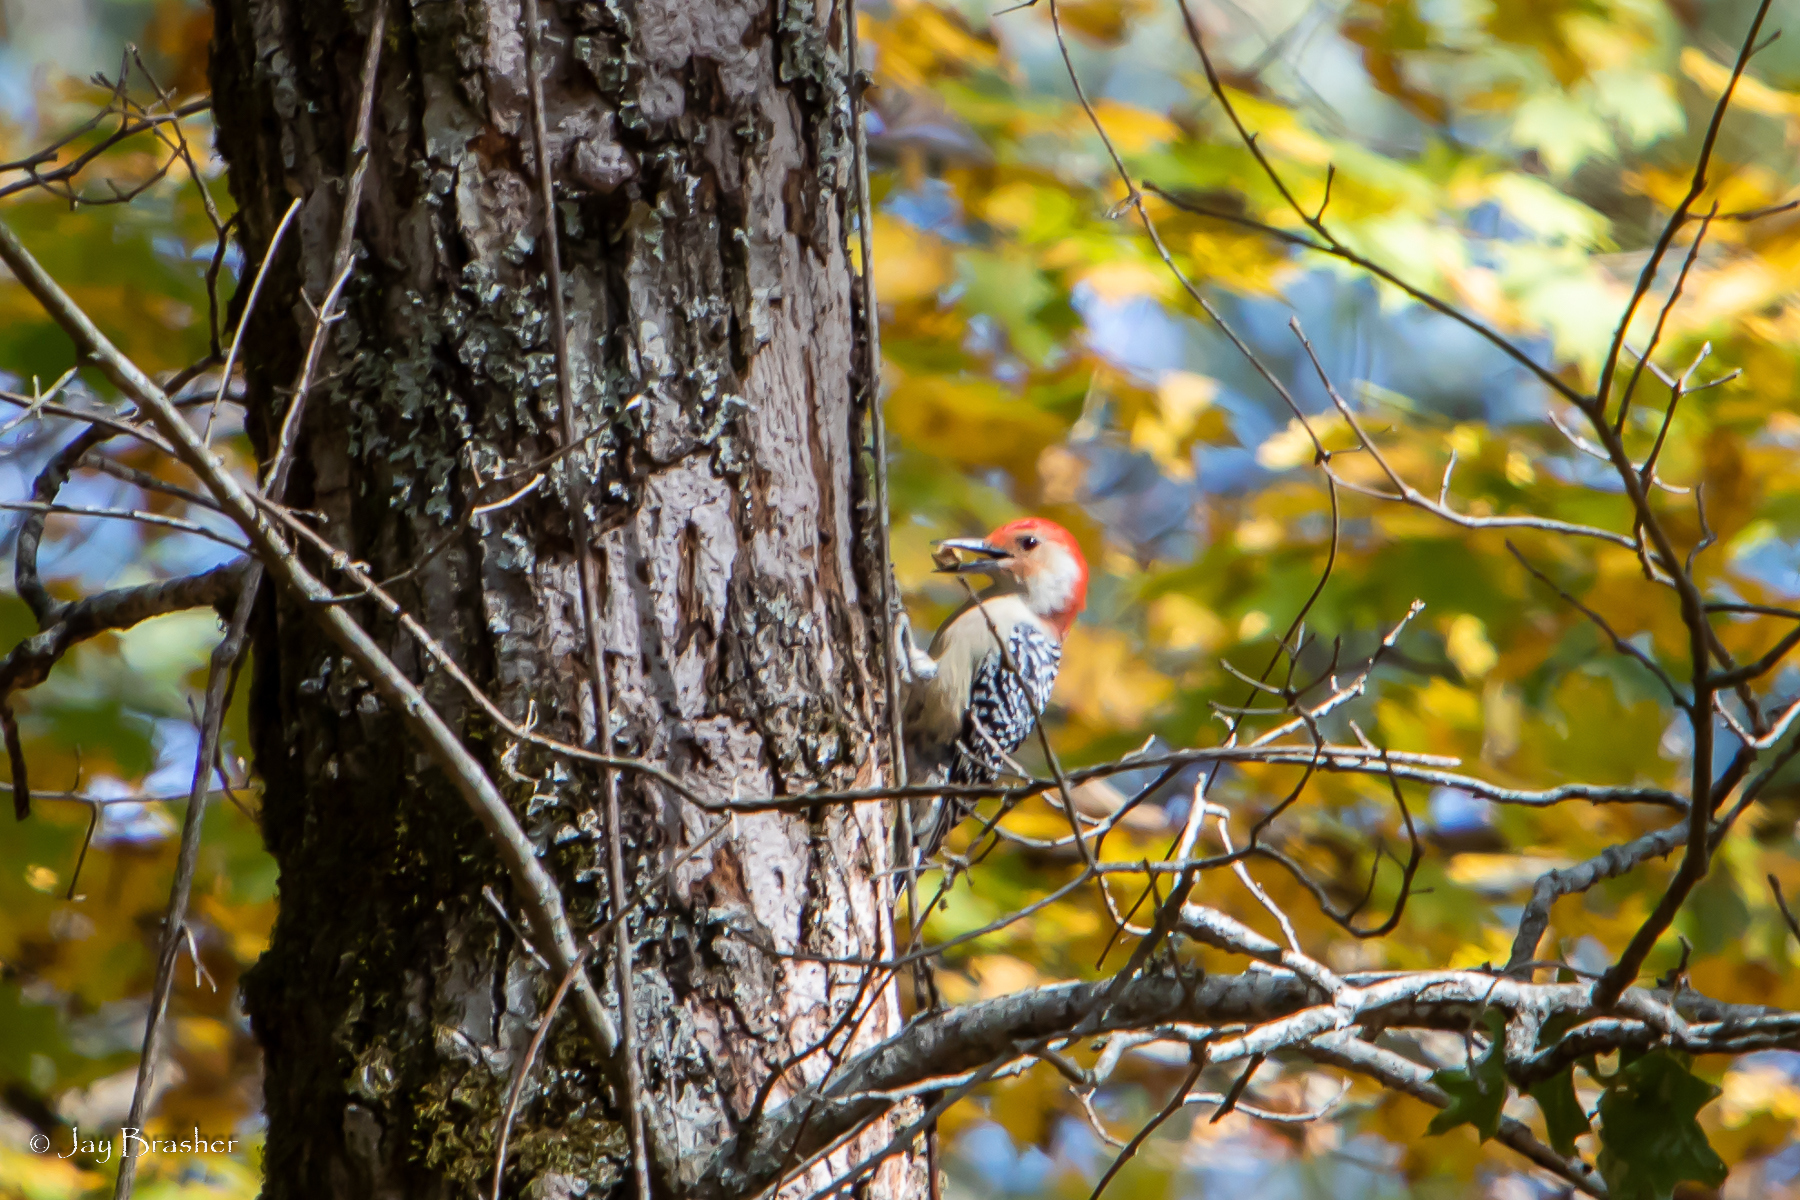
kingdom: Animalia
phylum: Chordata
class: Aves
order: Piciformes
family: Picidae
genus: Melanerpes
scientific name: Melanerpes carolinus
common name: Red-bellied woodpecker
